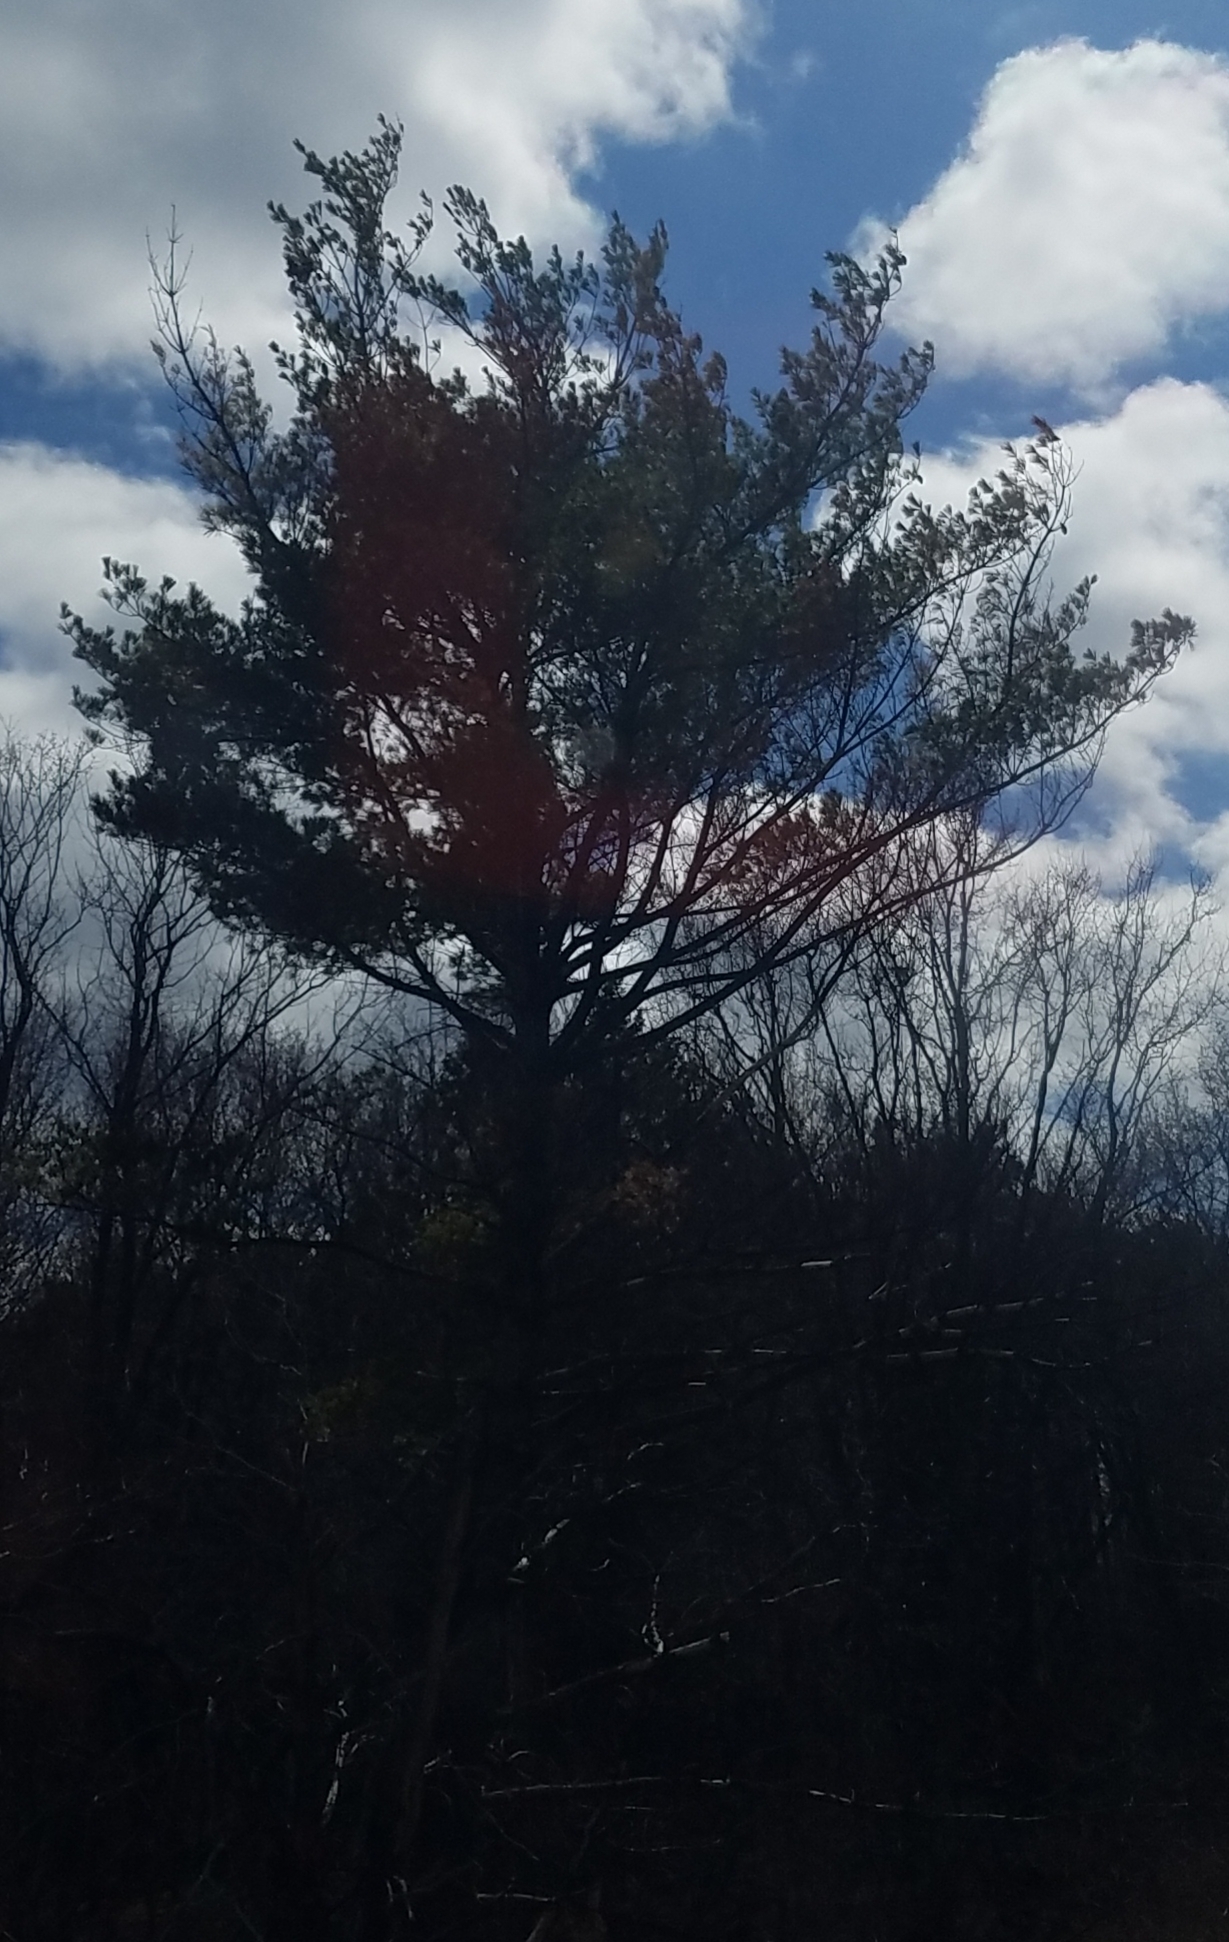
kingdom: Plantae
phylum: Tracheophyta
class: Pinopsida
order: Pinales
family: Pinaceae
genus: Pinus
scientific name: Pinus strobus
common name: Weymouth pine
